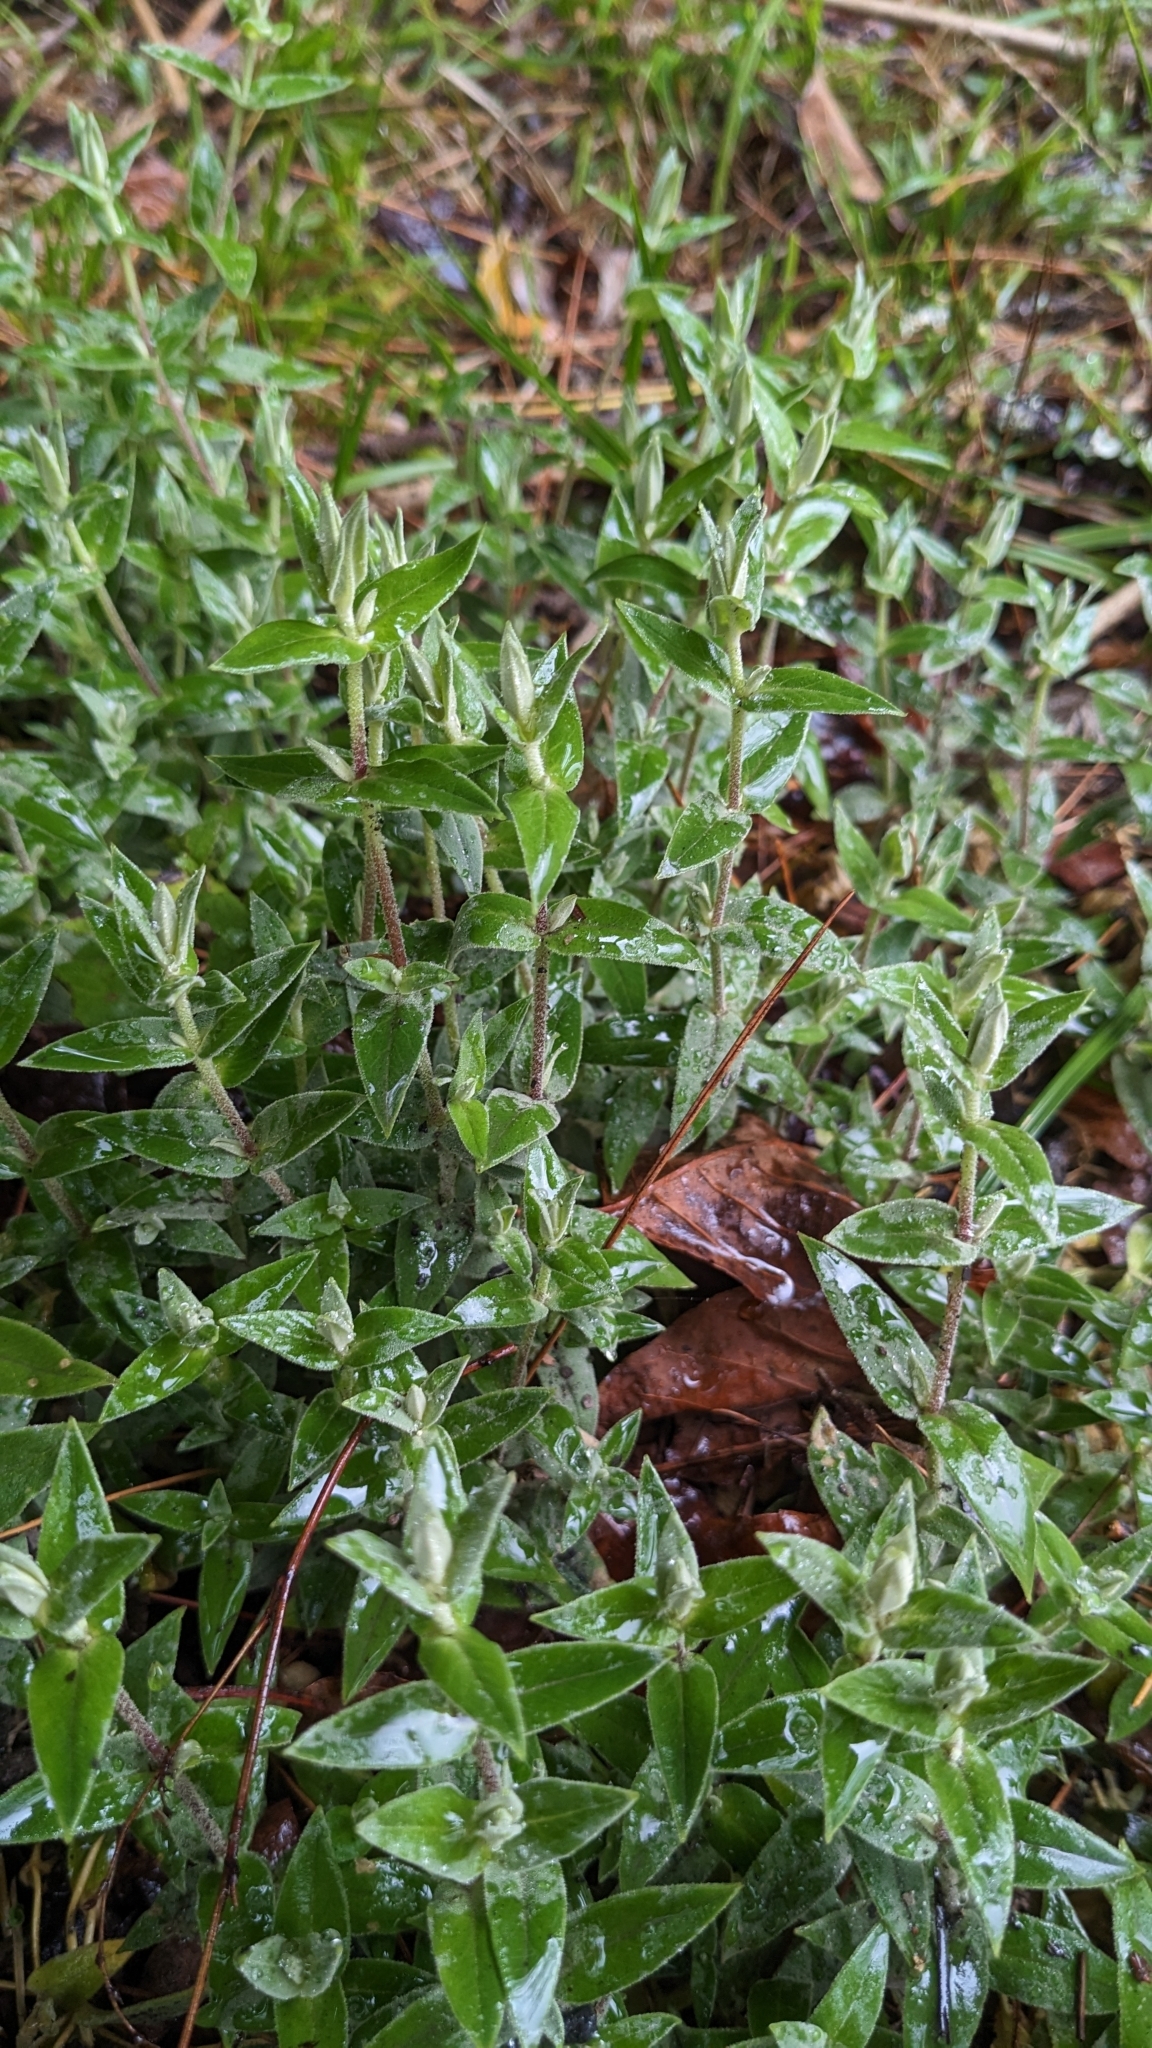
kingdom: Plantae
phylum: Tracheophyta
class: Magnoliopsida
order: Caryophyllales
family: Caryophyllaceae
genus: Stellaria
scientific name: Stellaria vestita
